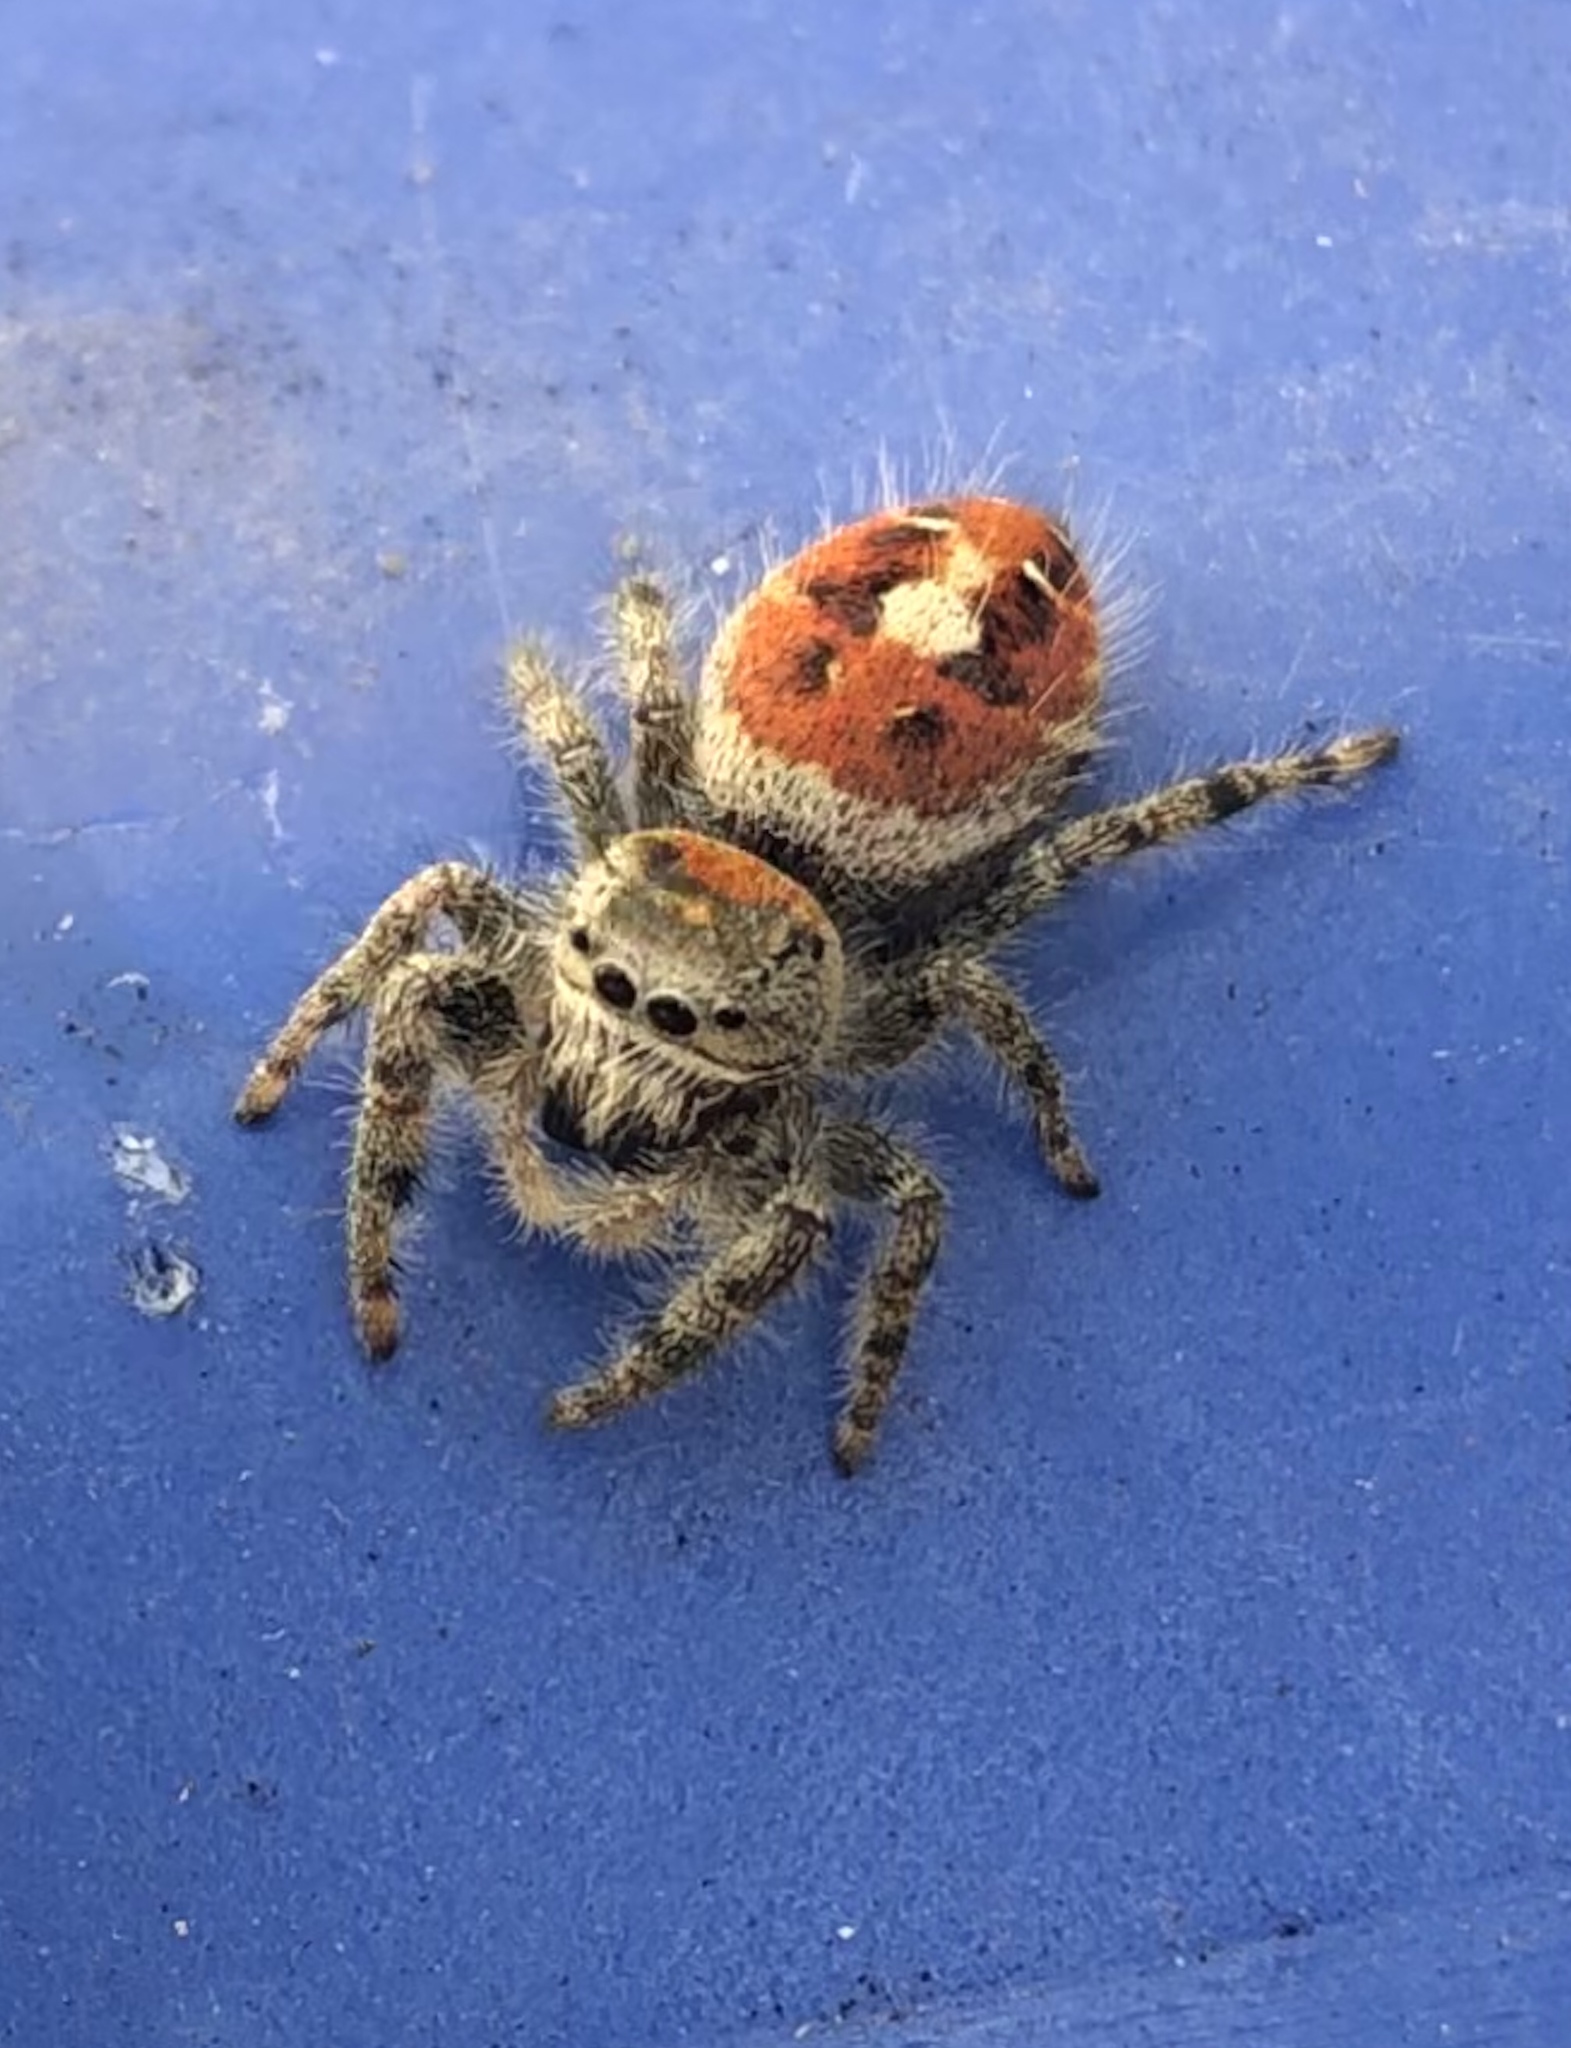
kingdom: Animalia
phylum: Arthropoda
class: Arachnida
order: Araneae
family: Salticidae
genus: Phidippus
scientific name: Phidippus adumbratus
